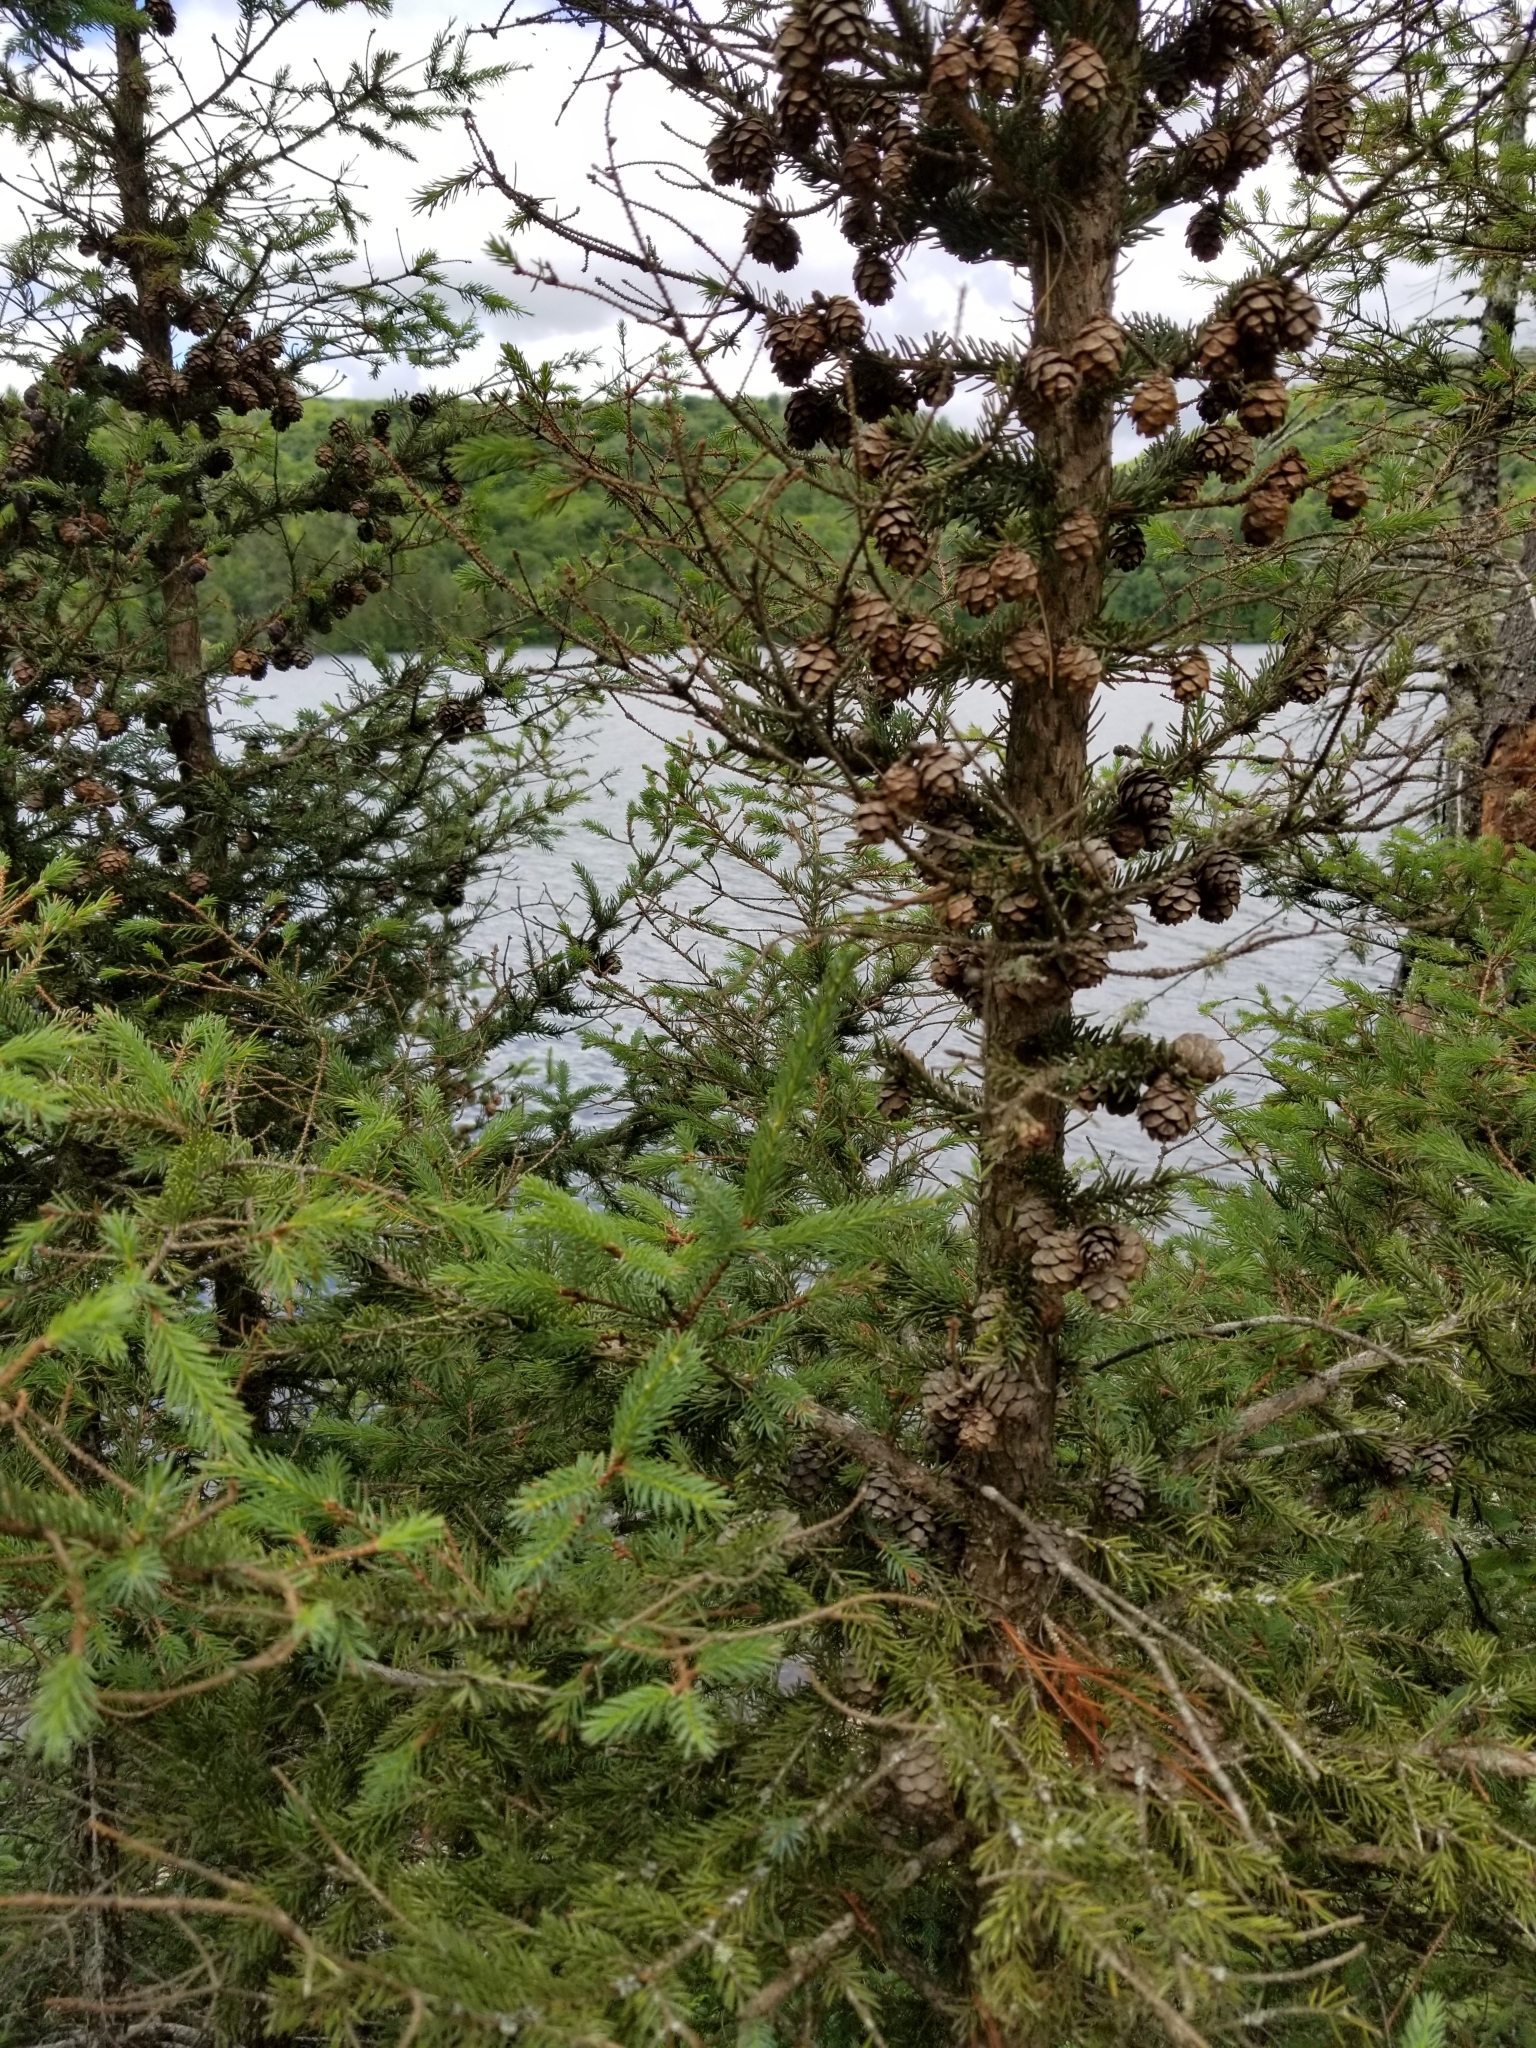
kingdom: Plantae
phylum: Tracheophyta
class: Pinopsida
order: Pinales
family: Pinaceae
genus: Picea
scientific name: Picea mariana
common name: Black spruce
